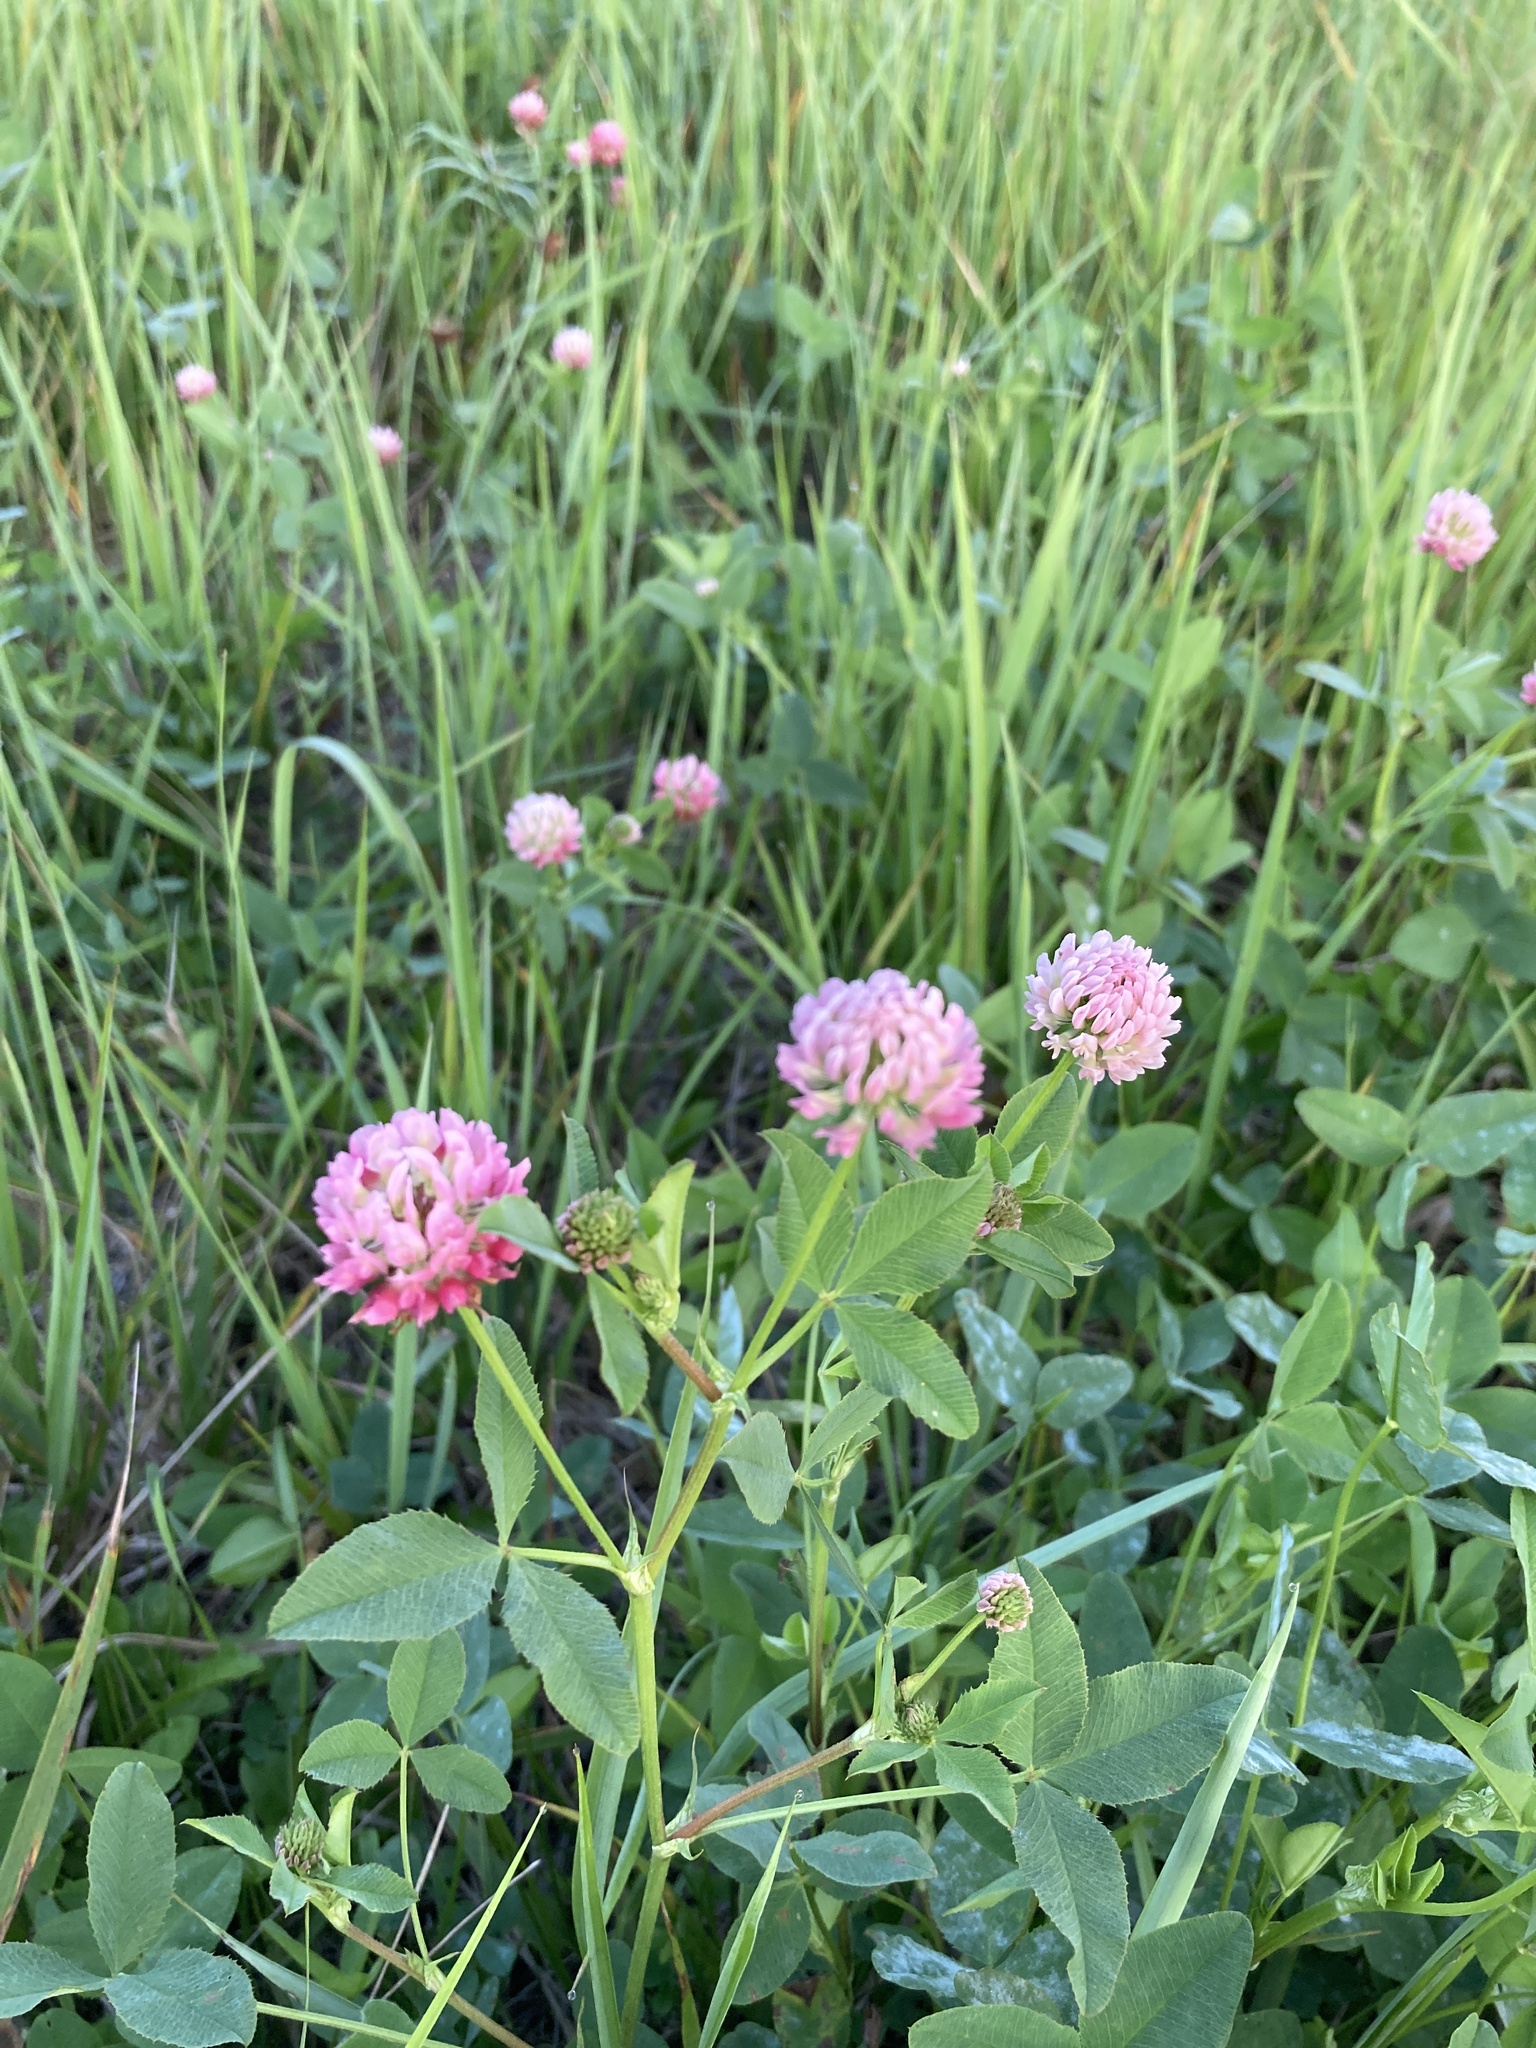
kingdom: Plantae
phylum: Tracheophyta
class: Magnoliopsida
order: Fabales
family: Fabaceae
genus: Trifolium
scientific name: Trifolium hybridum
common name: Alsike clover
